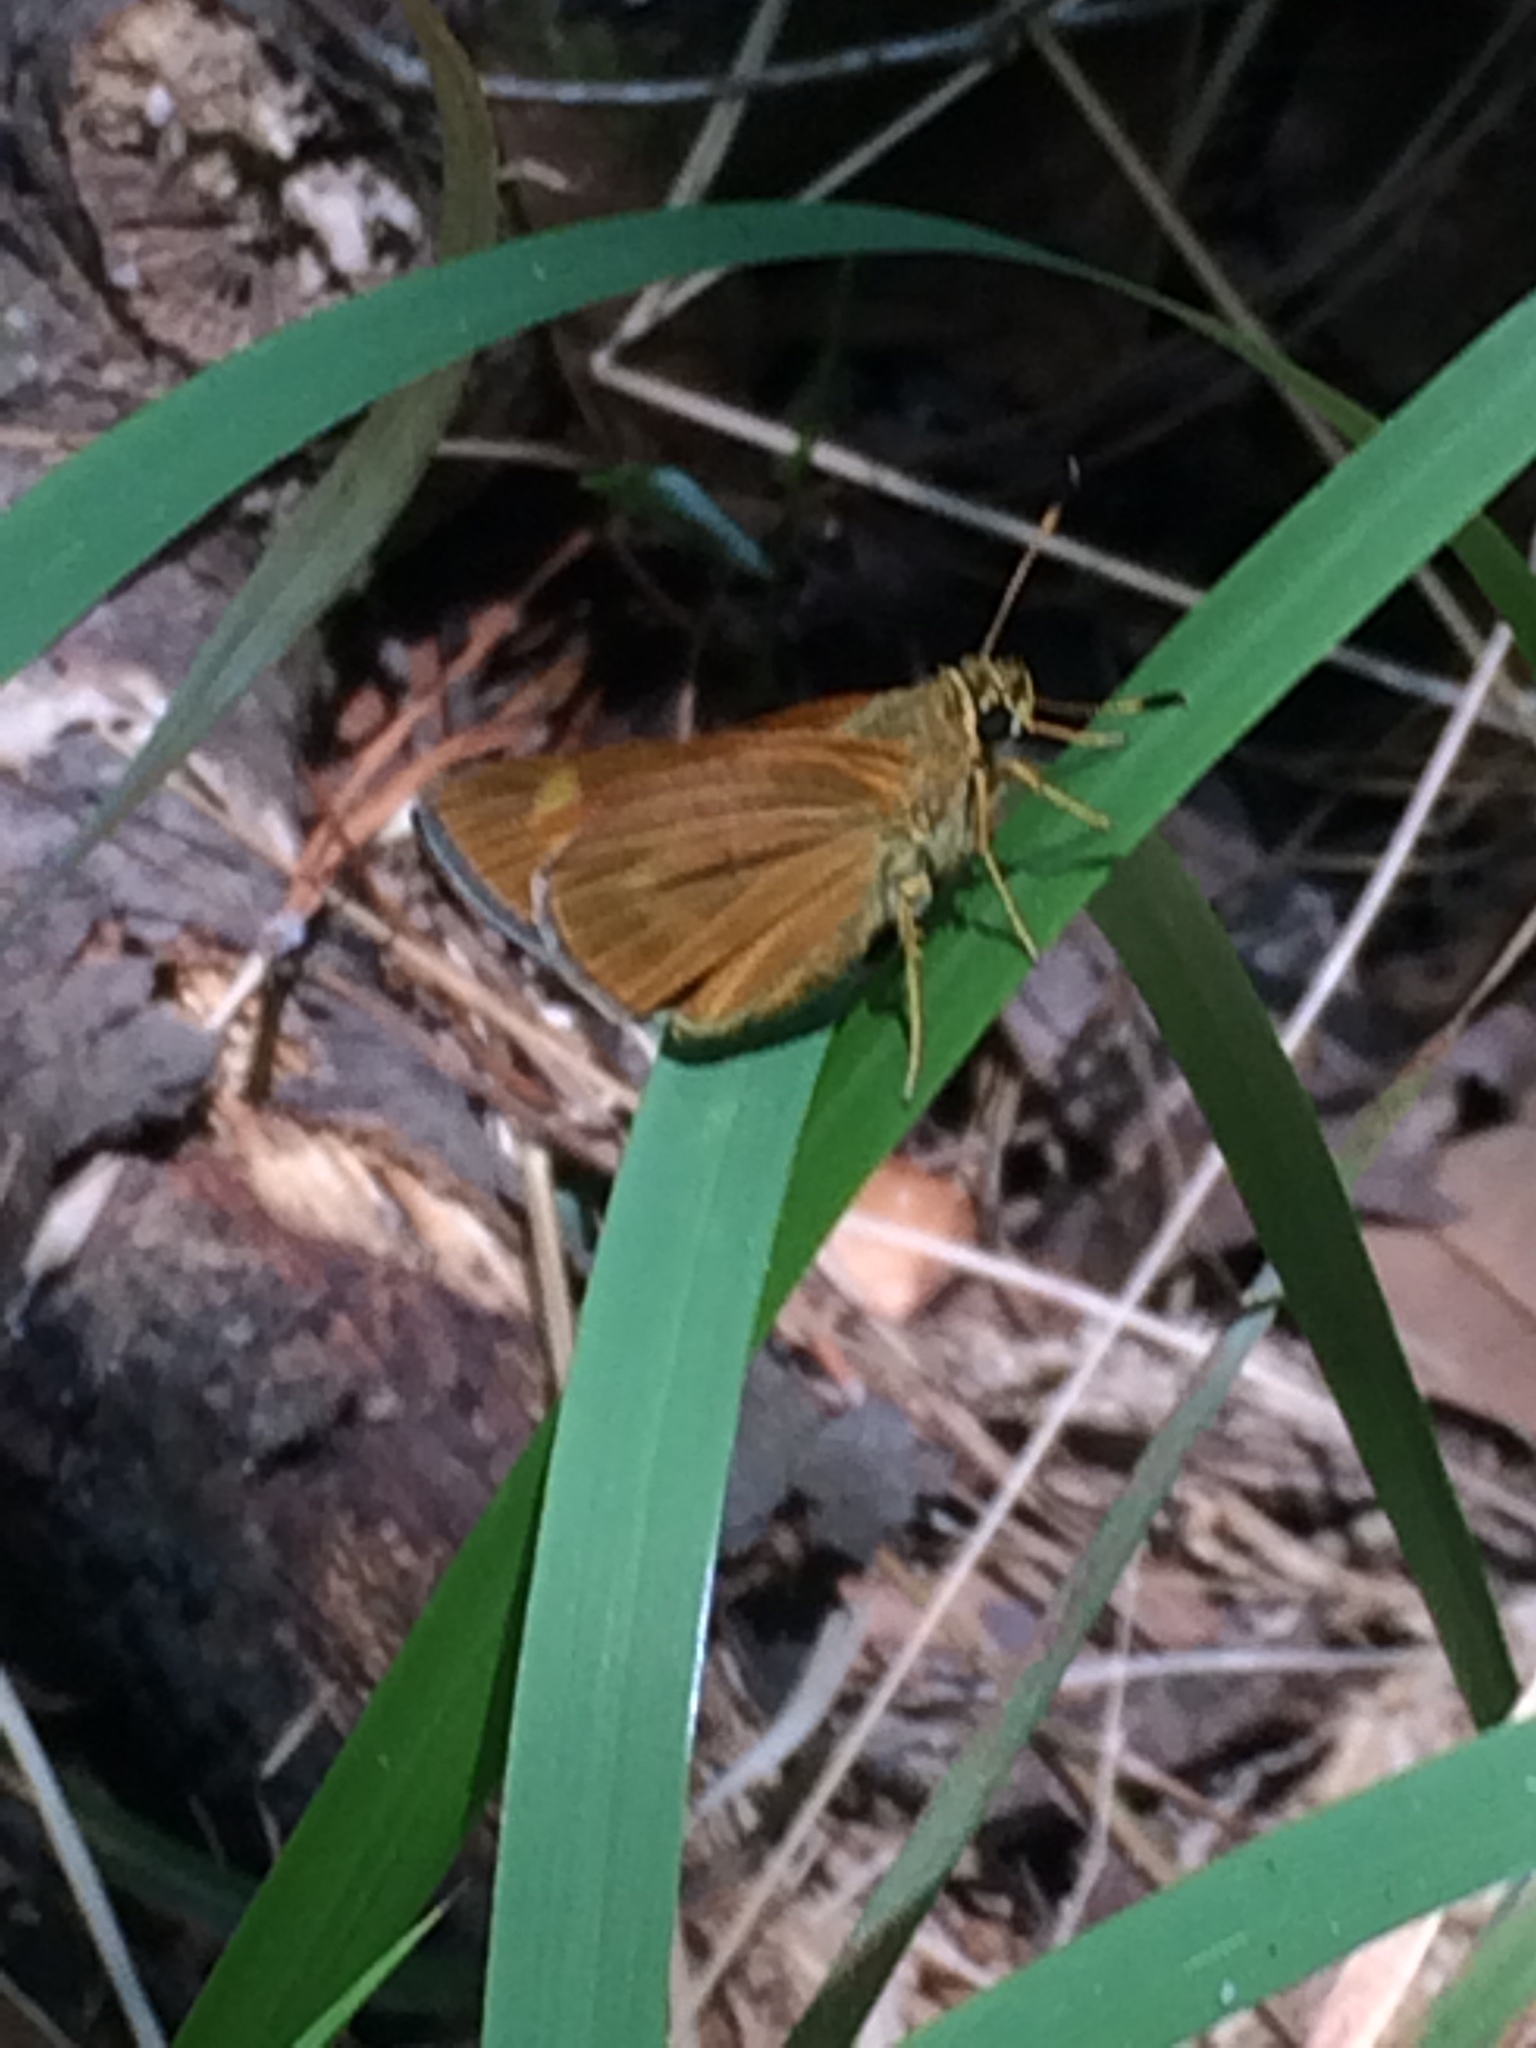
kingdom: Animalia
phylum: Arthropoda
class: Insecta
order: Lepidoptera
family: Hesperiidae
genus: Problema
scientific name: Problema byssus
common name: Byssus skipper
